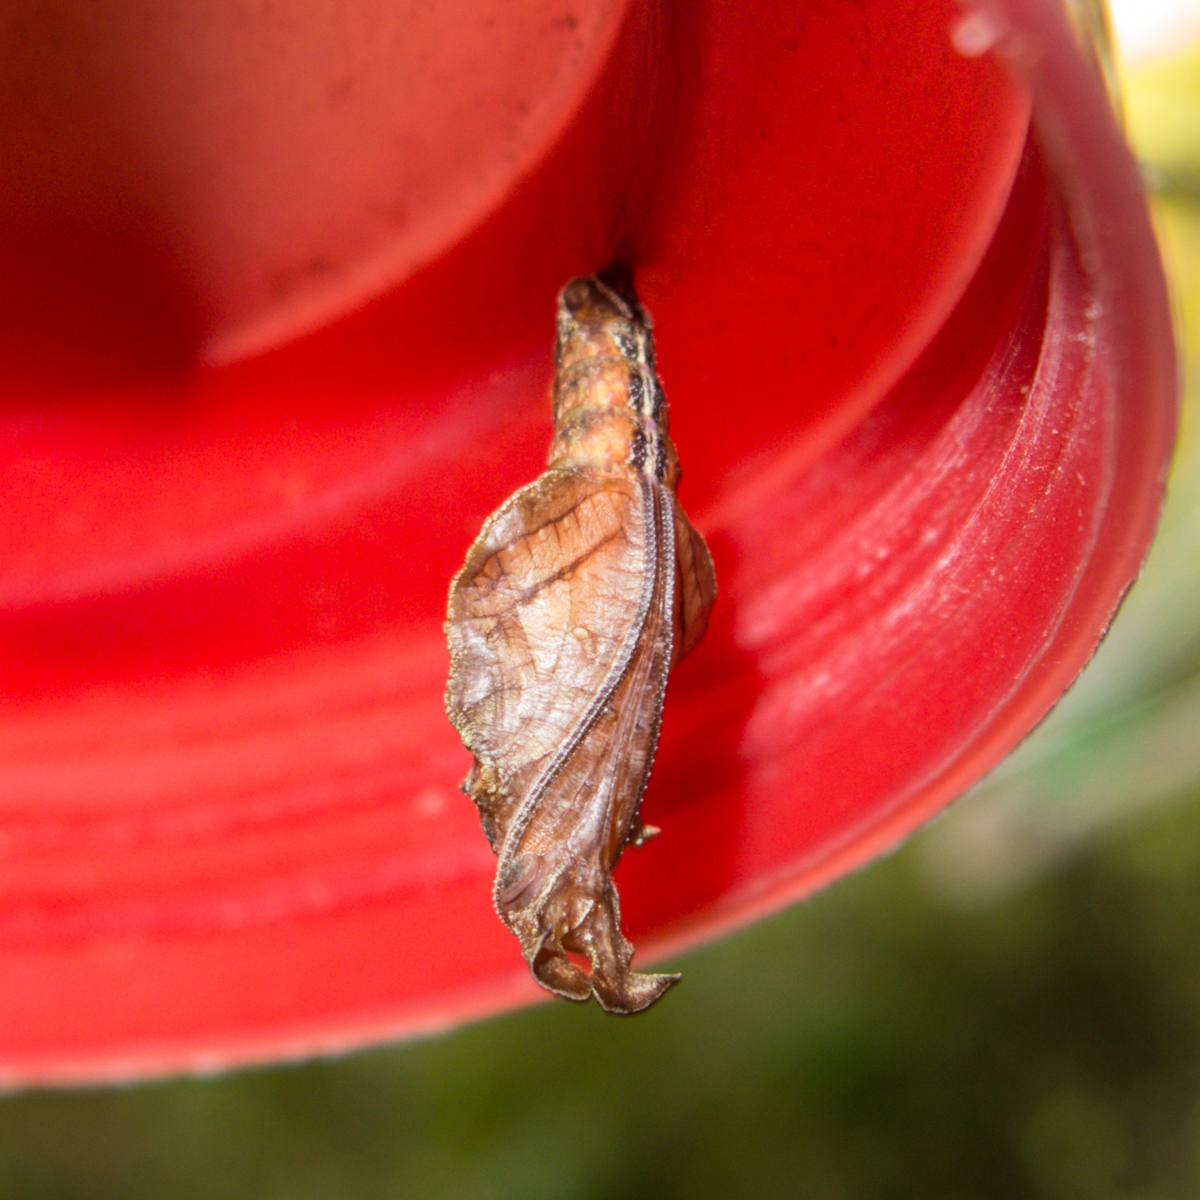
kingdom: Animalia
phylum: Arthropoda
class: Insecta
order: Lepidoptera
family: Nymphalidae
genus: Limenitis
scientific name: Limenitis Moduza procris
